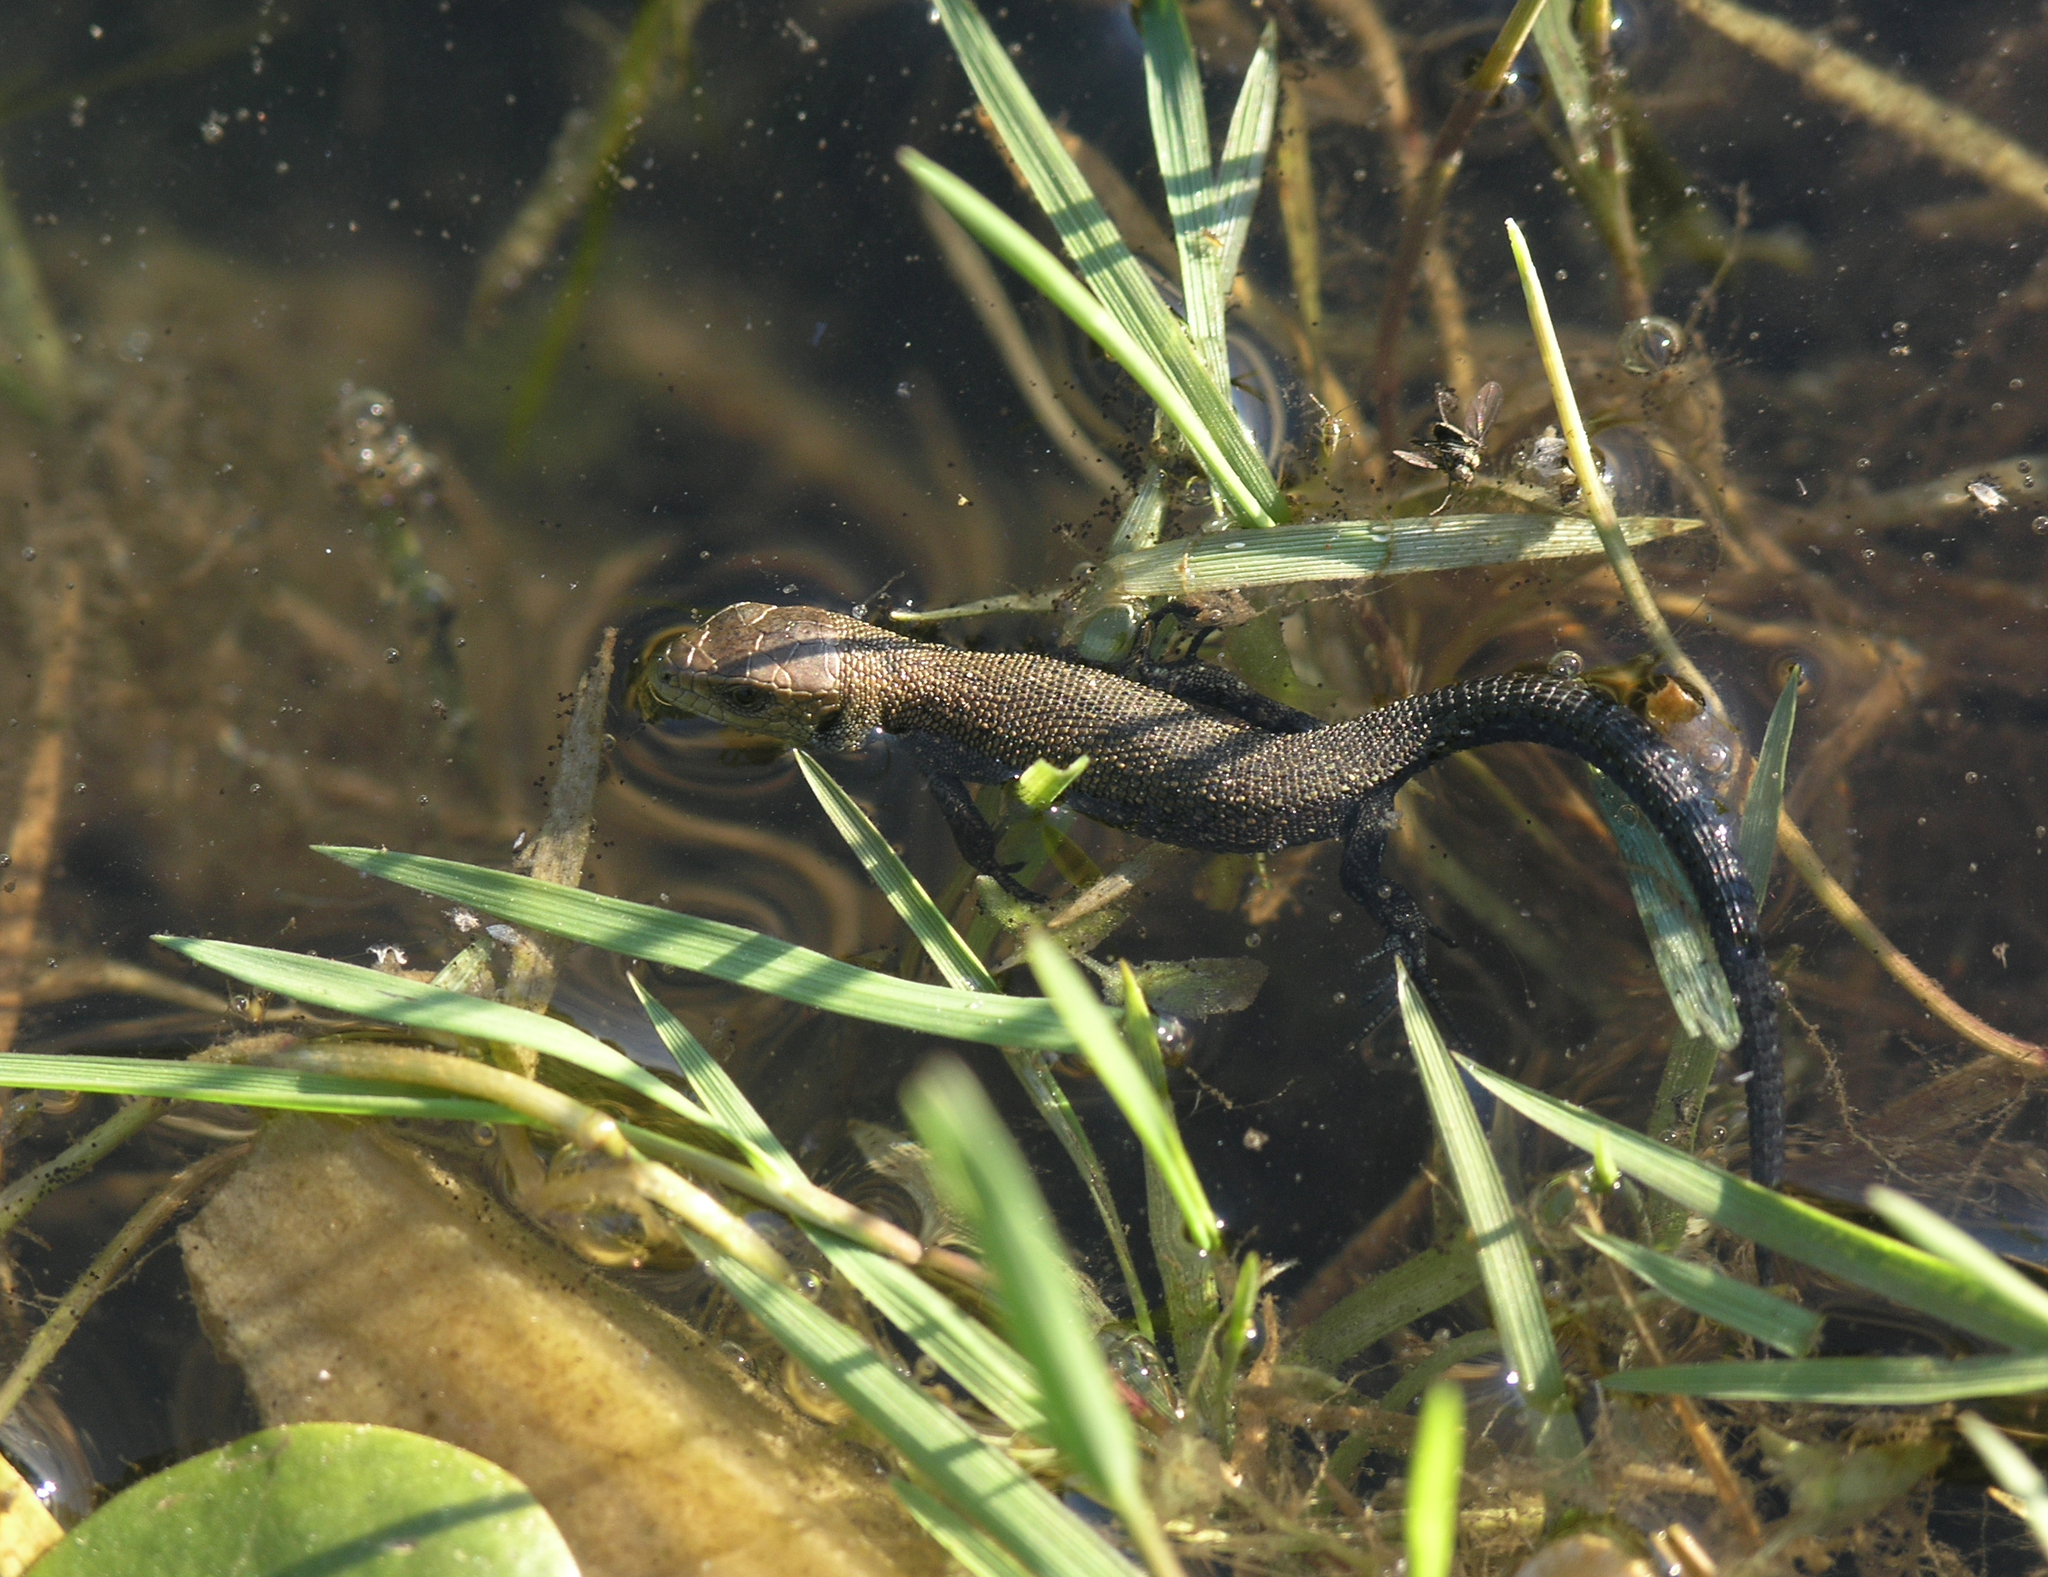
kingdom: Animalia
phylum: Chordata
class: Squamata
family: Lacertidae
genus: Zootoca
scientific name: Zootoca vivipara
